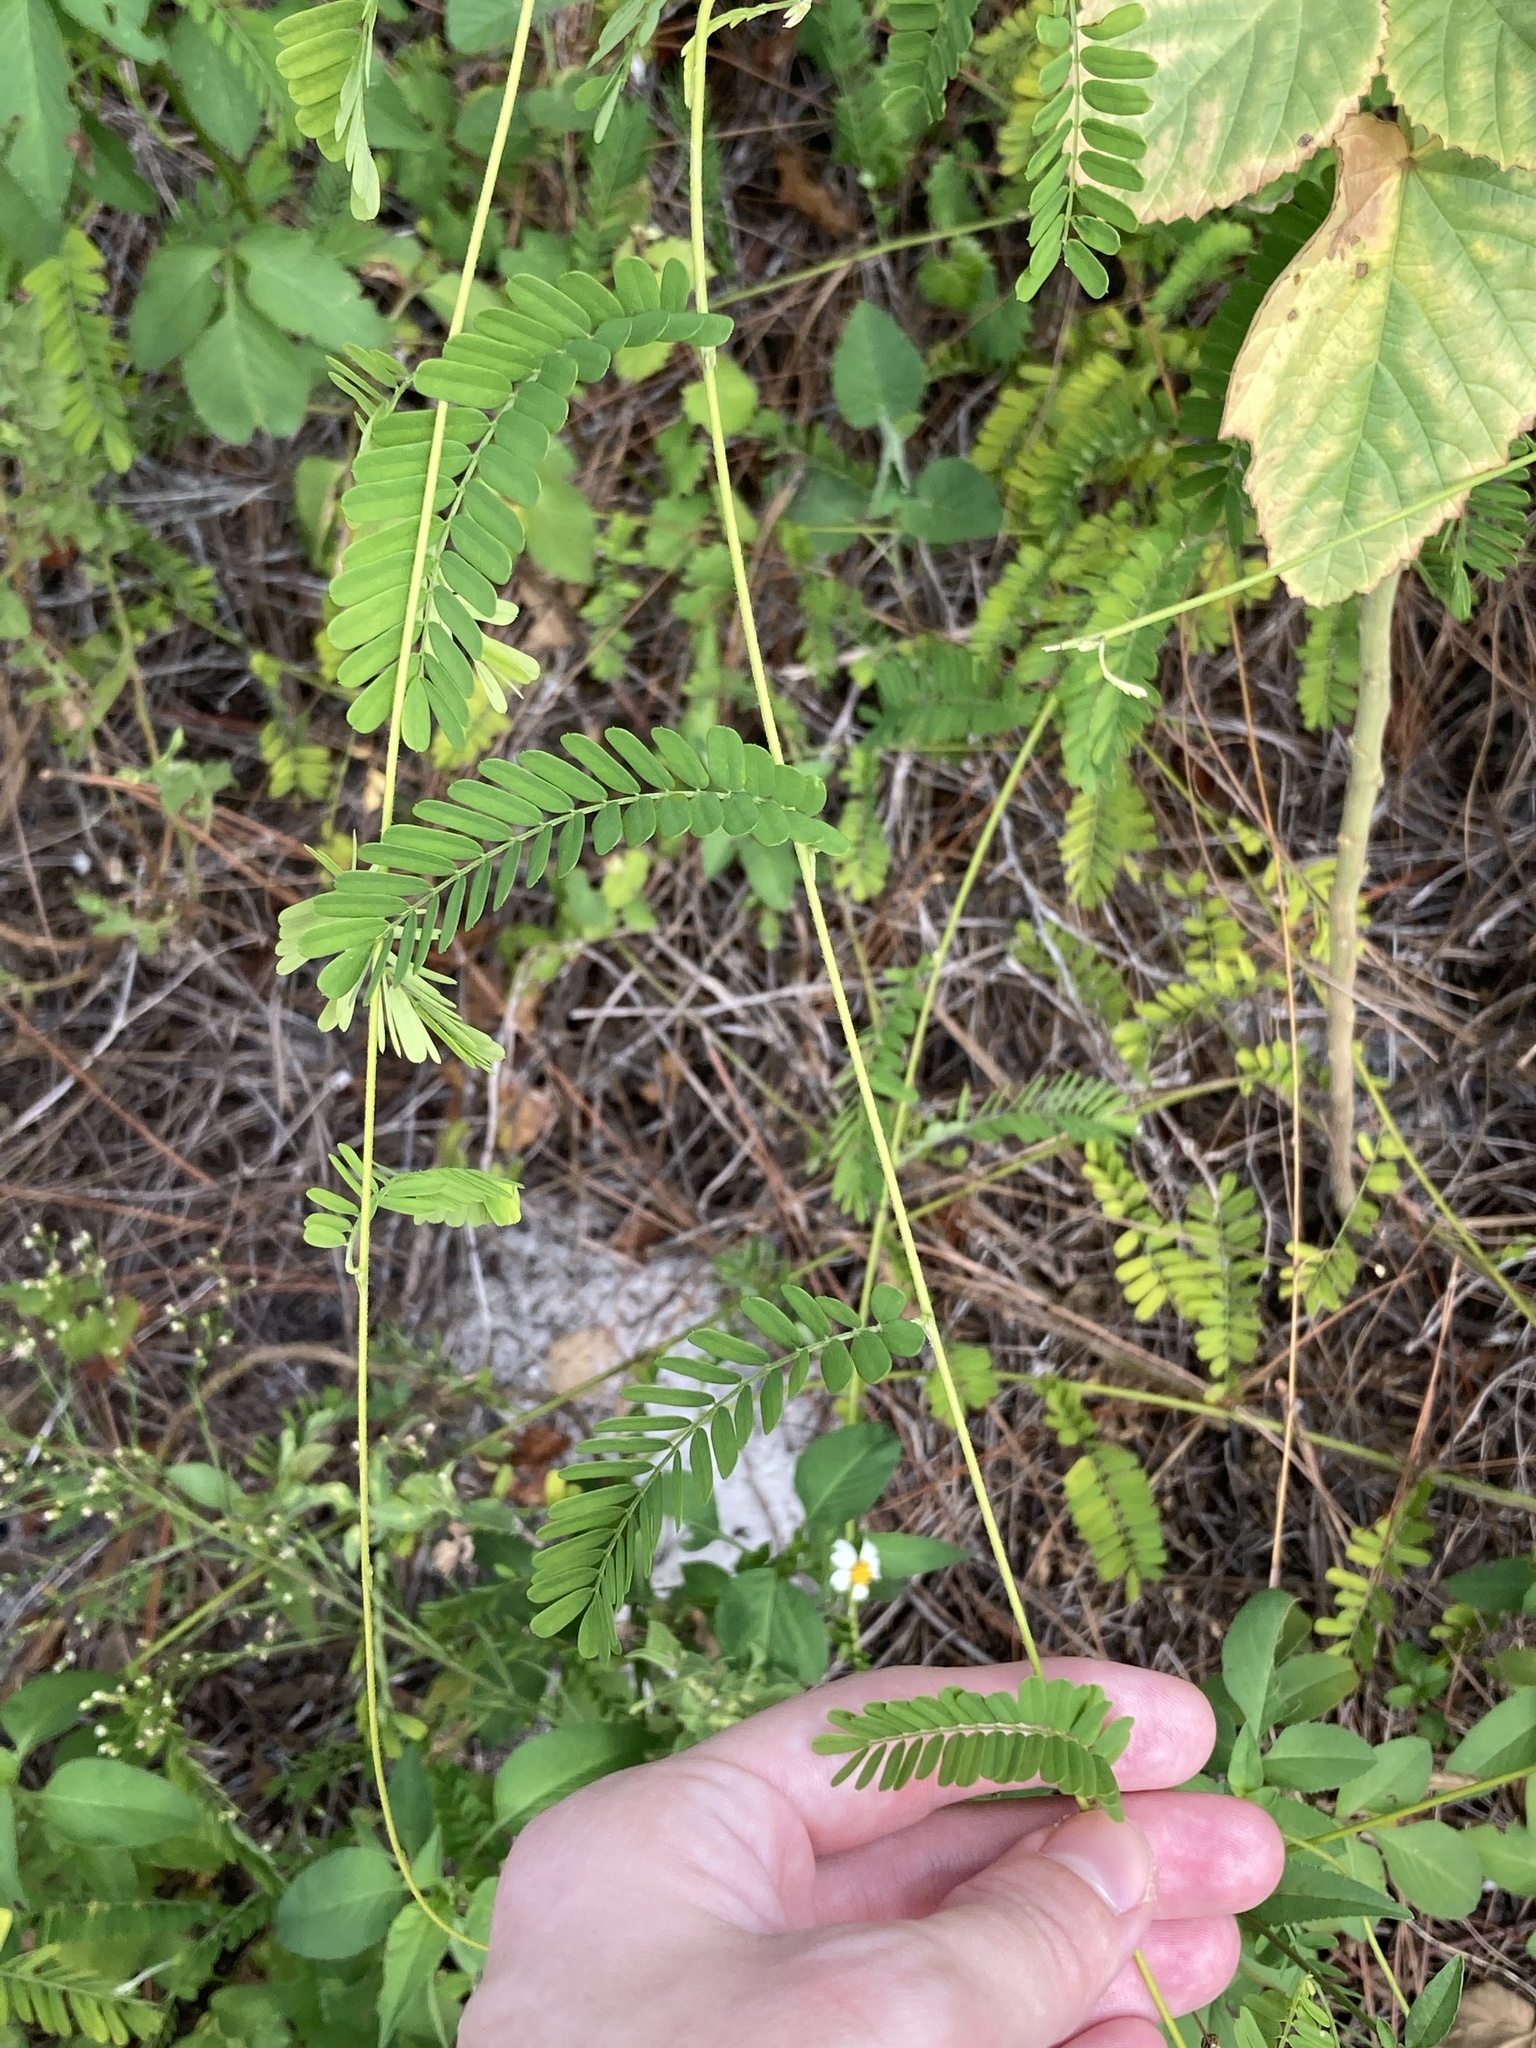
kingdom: Plantae
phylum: Tracheophyta
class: Magnoliopsida
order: Fabales
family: Fabaceae
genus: Abrus
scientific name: Abrus precatorius
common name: Rosarypea
